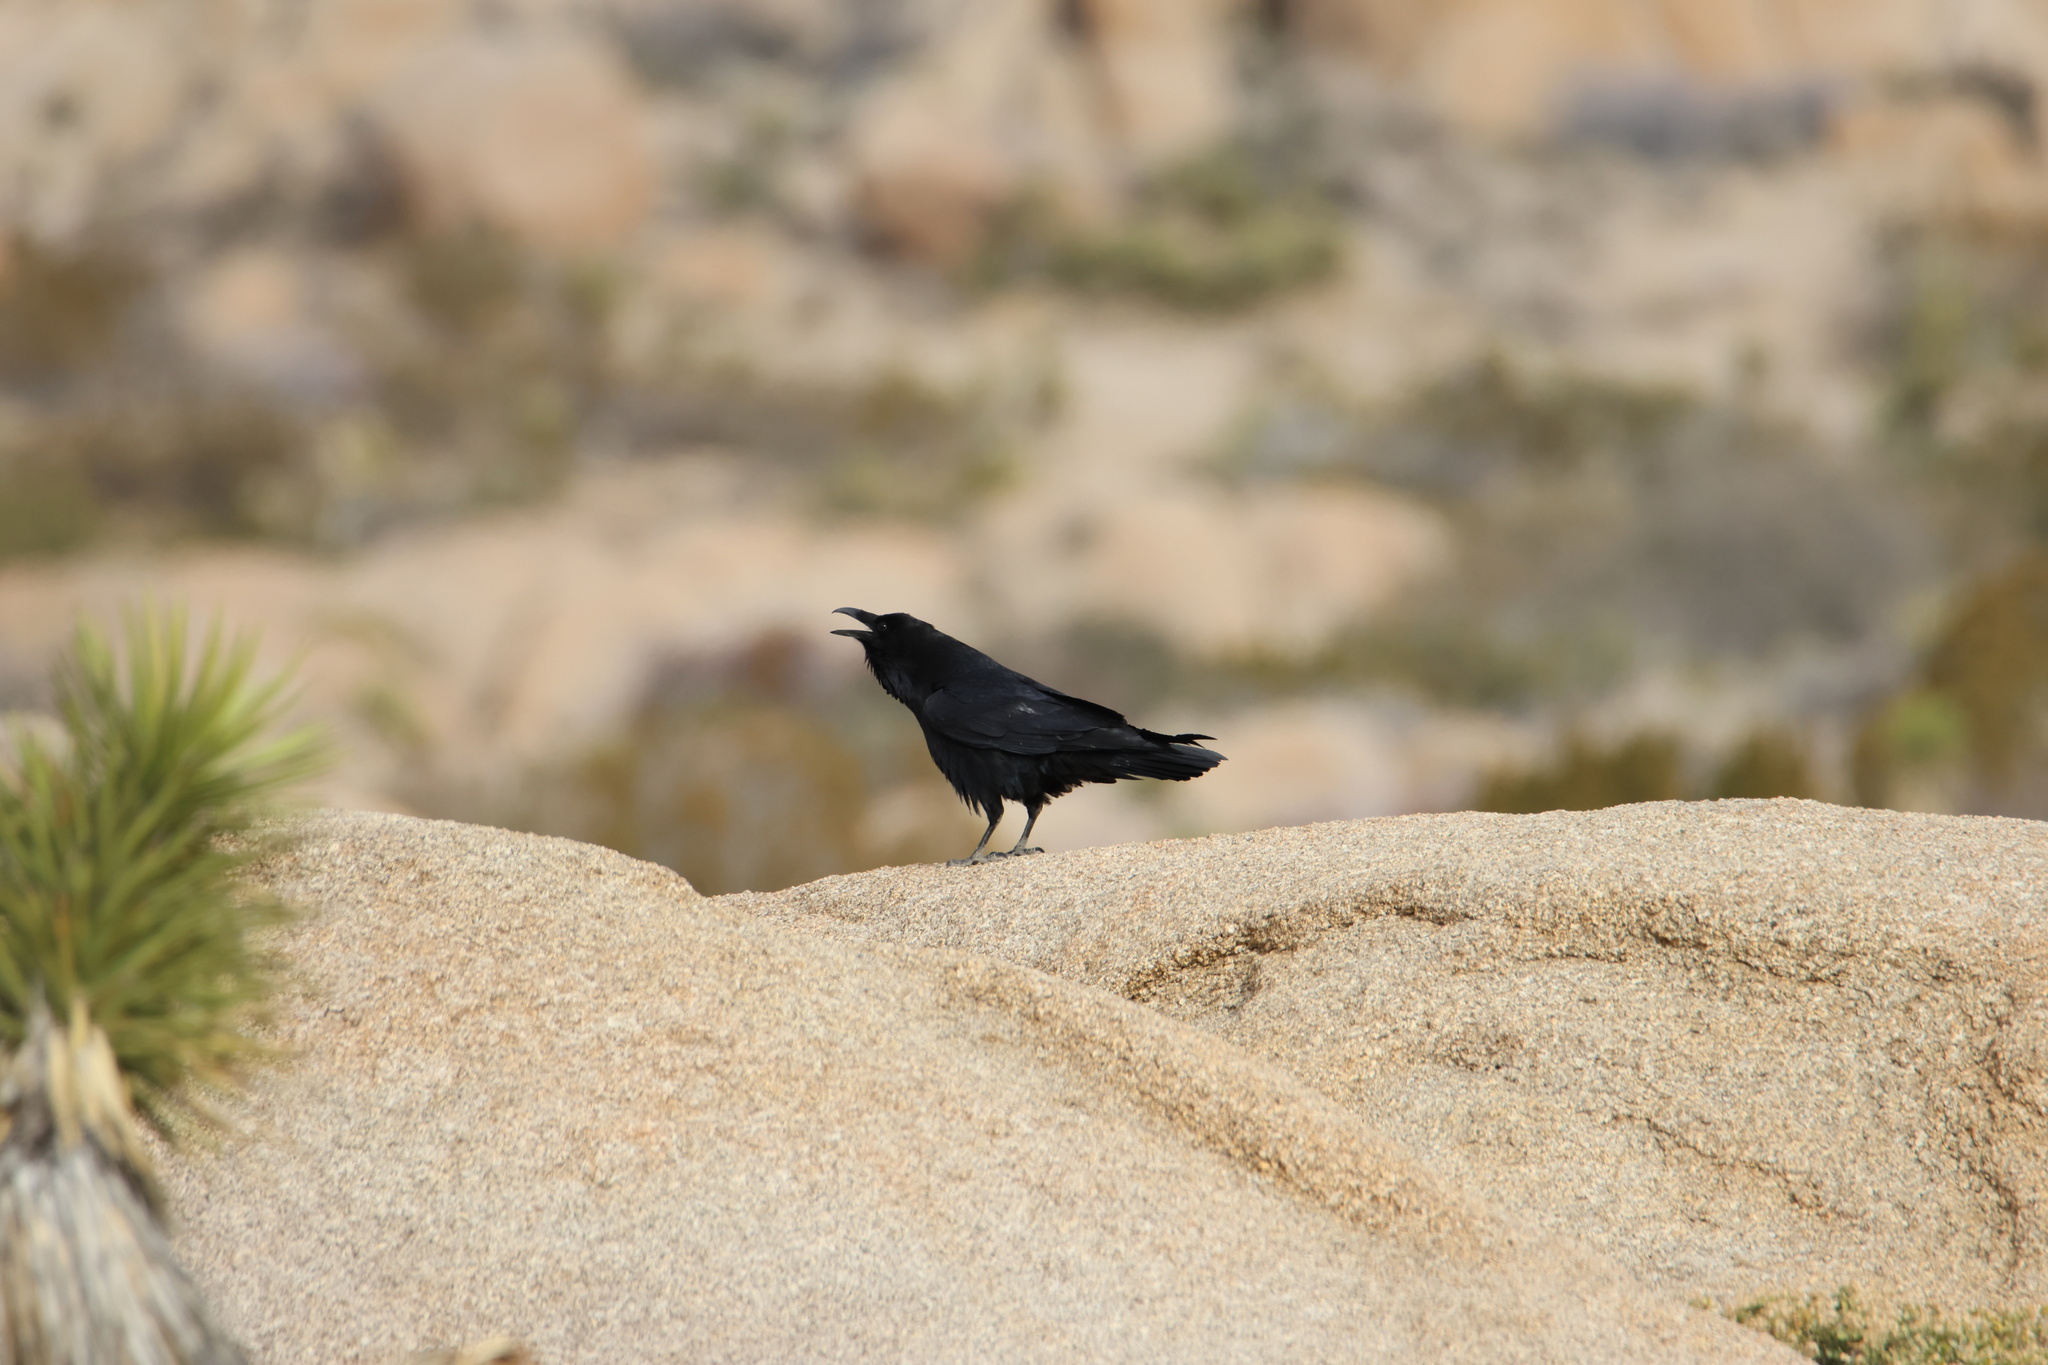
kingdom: Animalia
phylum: Chordata
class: Aves
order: Passeriformes
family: Corvidae
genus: Corvus
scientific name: Corvus corax
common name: Common raven
